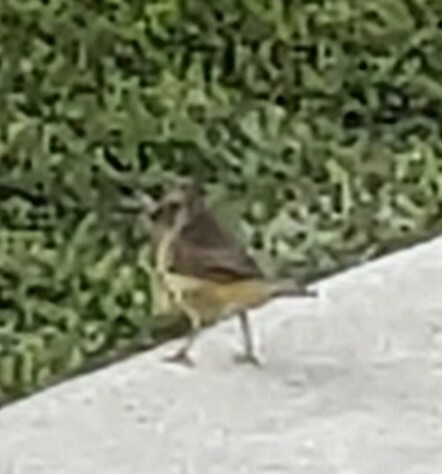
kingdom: Animalia
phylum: Chordata
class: Aves
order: Passeriformes
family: Parulidae
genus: Setophaga
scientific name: Setophaga palmarum
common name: Palm warbler
